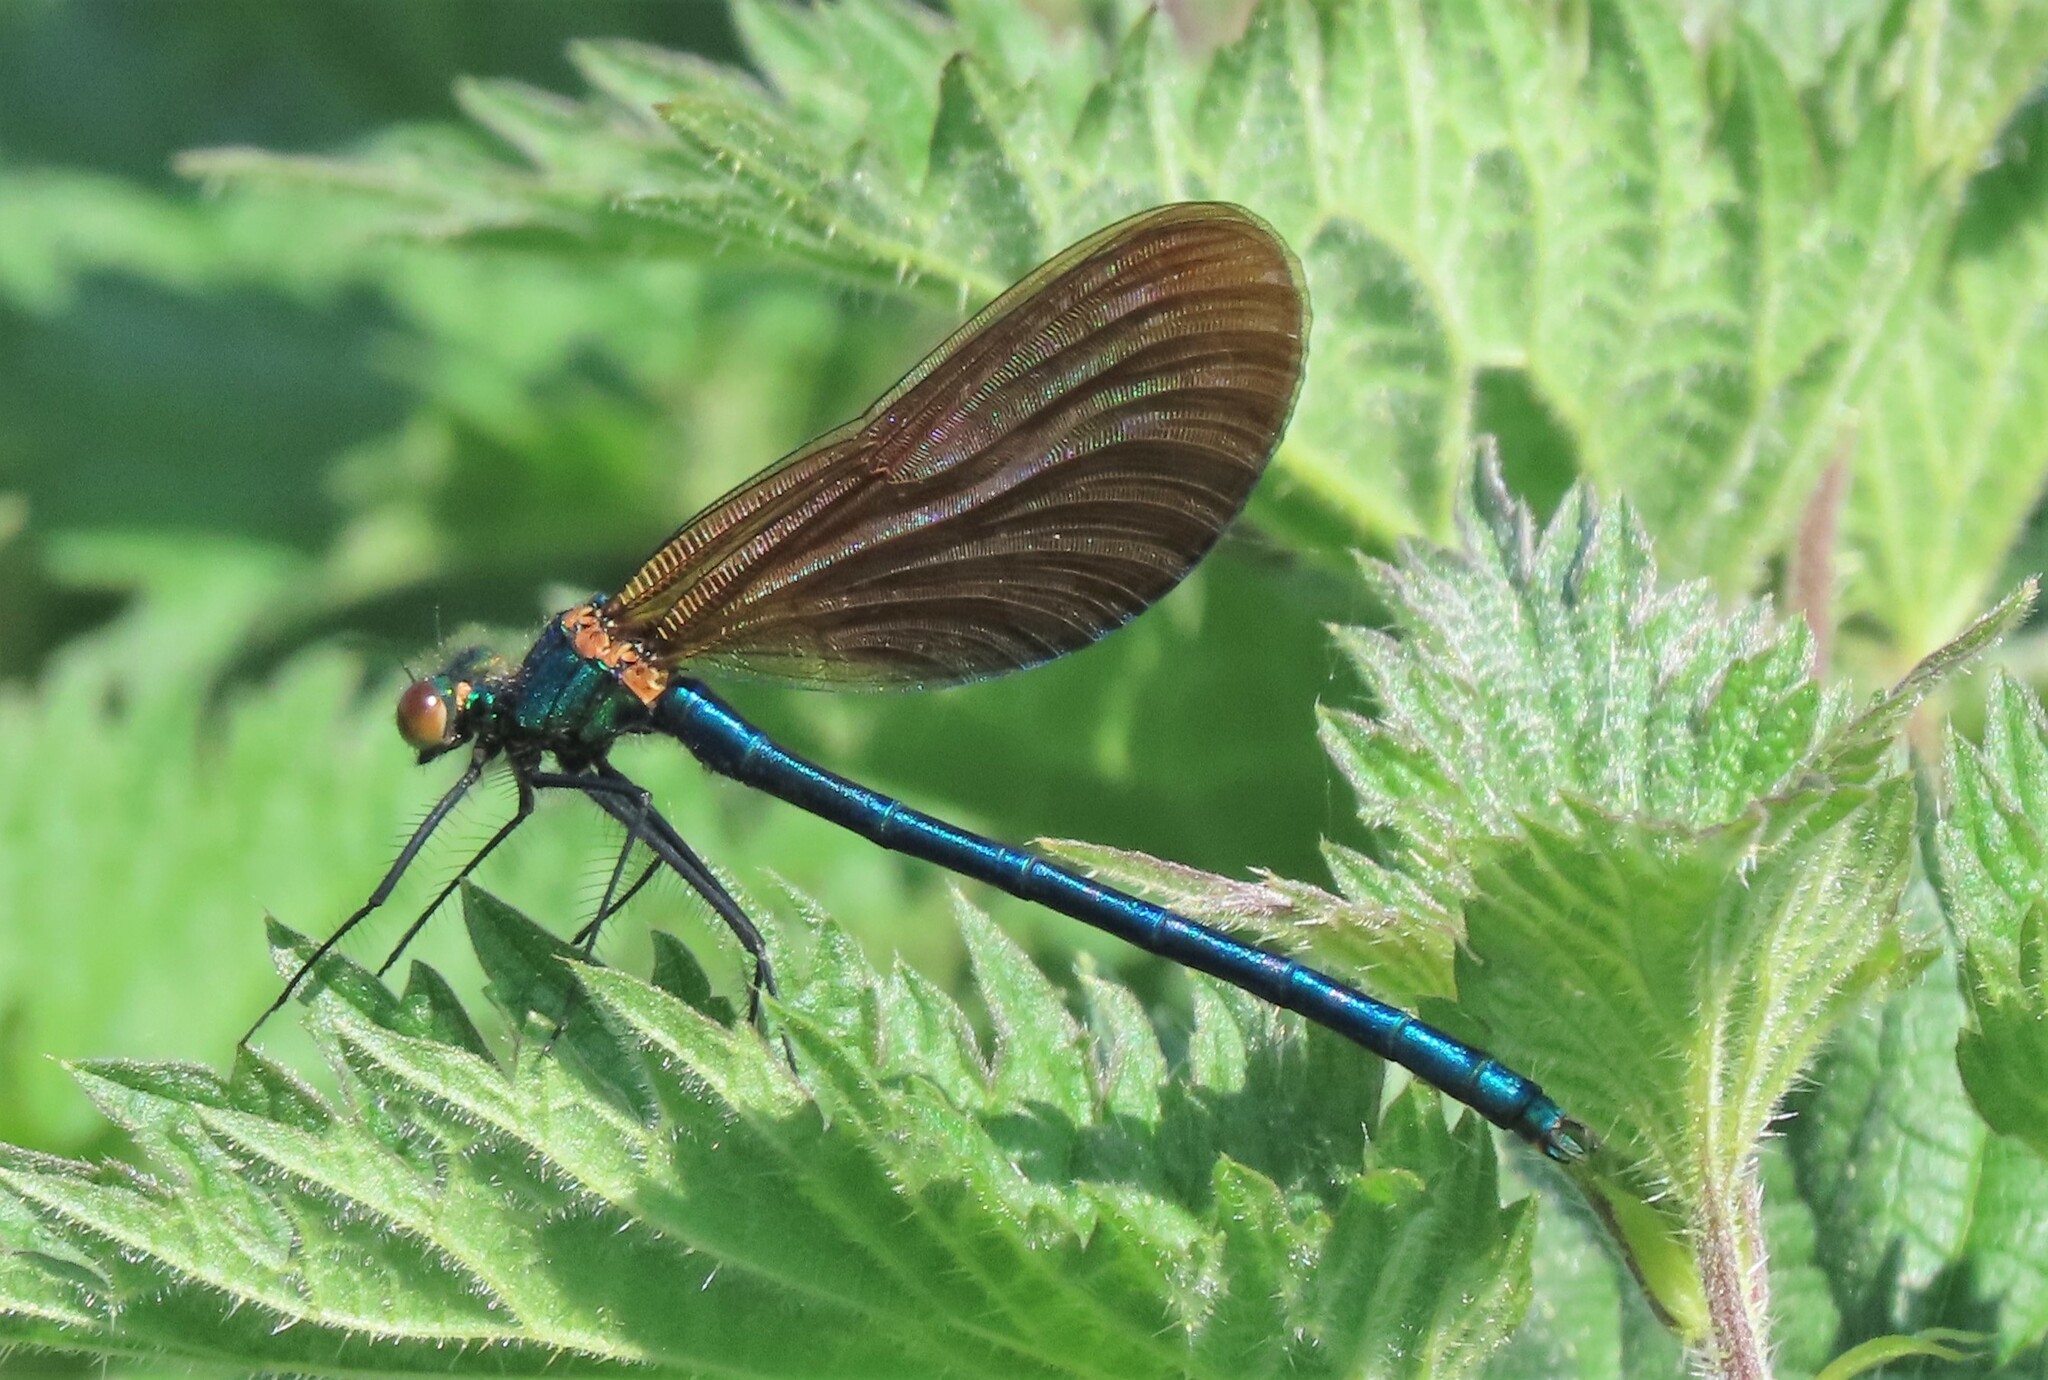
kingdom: Animalia
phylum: Arthropoda
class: Insecta
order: Odonata
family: Calopterygidae
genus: Calopteryx
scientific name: Calopteryx virgo
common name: Beautiful demoiselle
